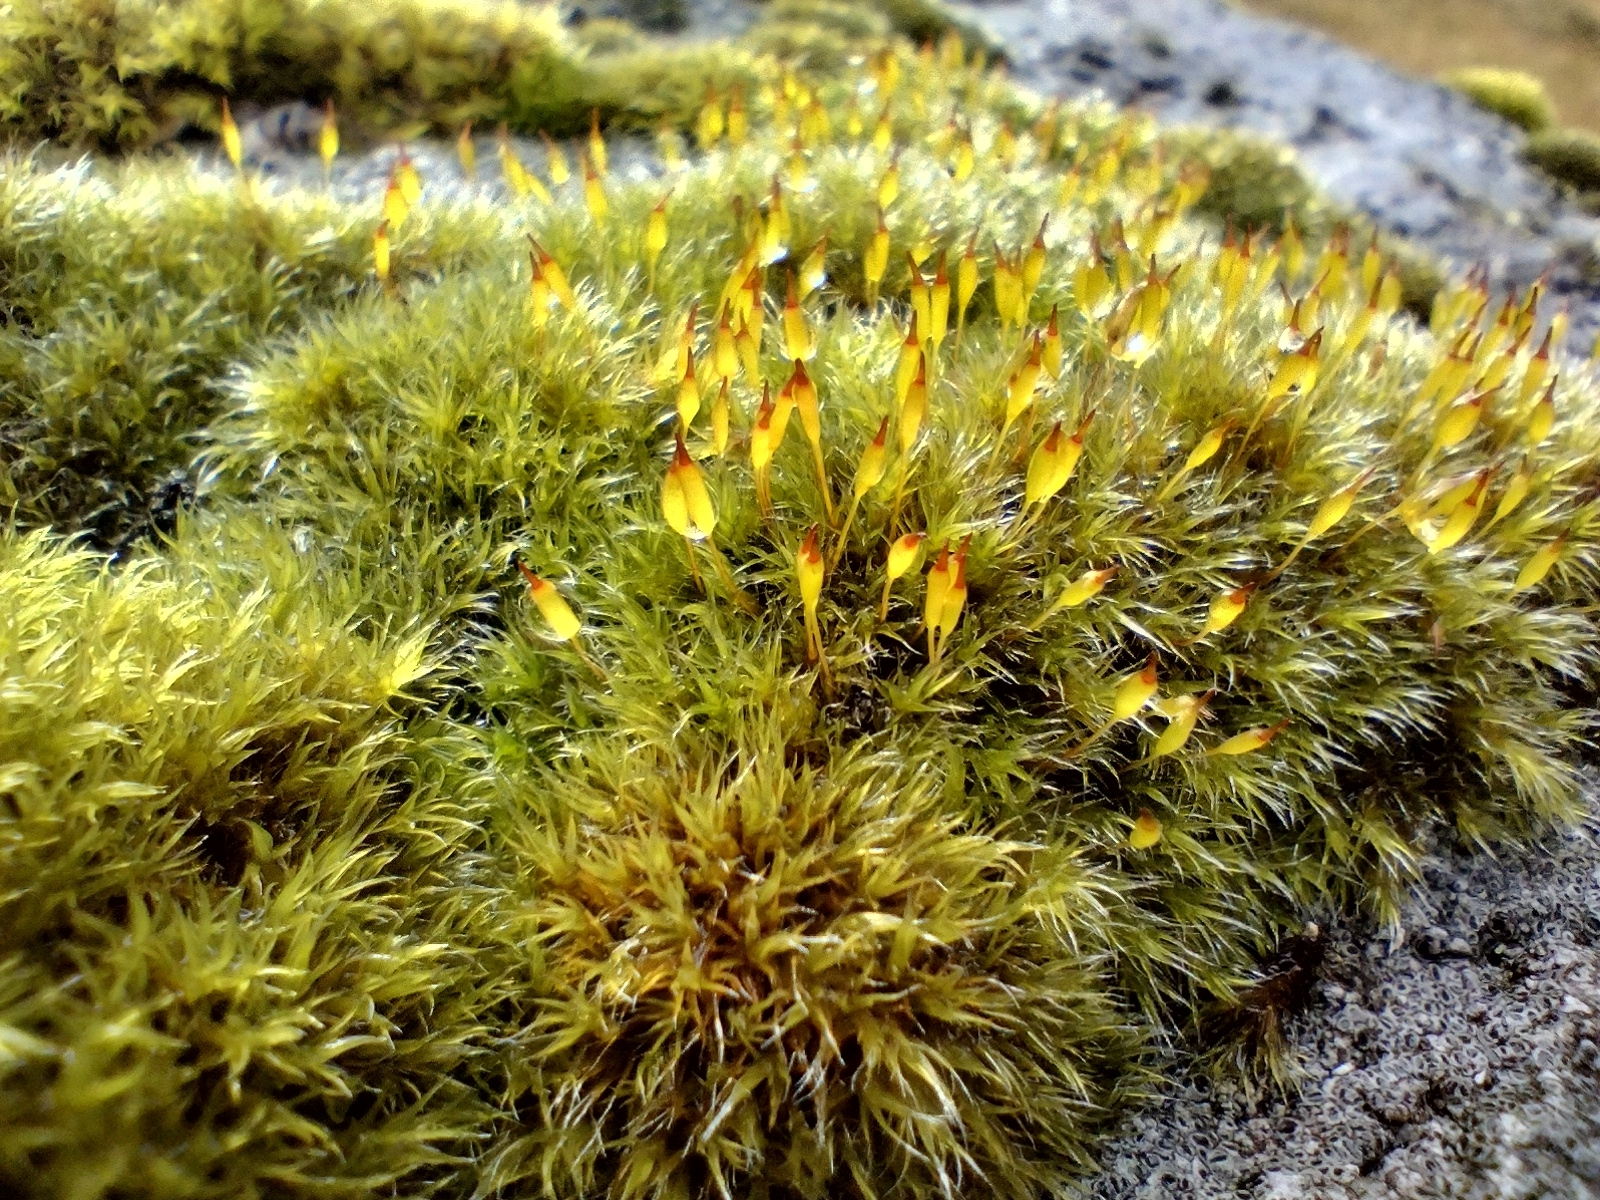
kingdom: Plantae
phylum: Bryophyta
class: Bryopsida
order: Grimmiales
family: Grimmiaceae
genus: Bucklandiella
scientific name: Bucklandiella heterosticha
